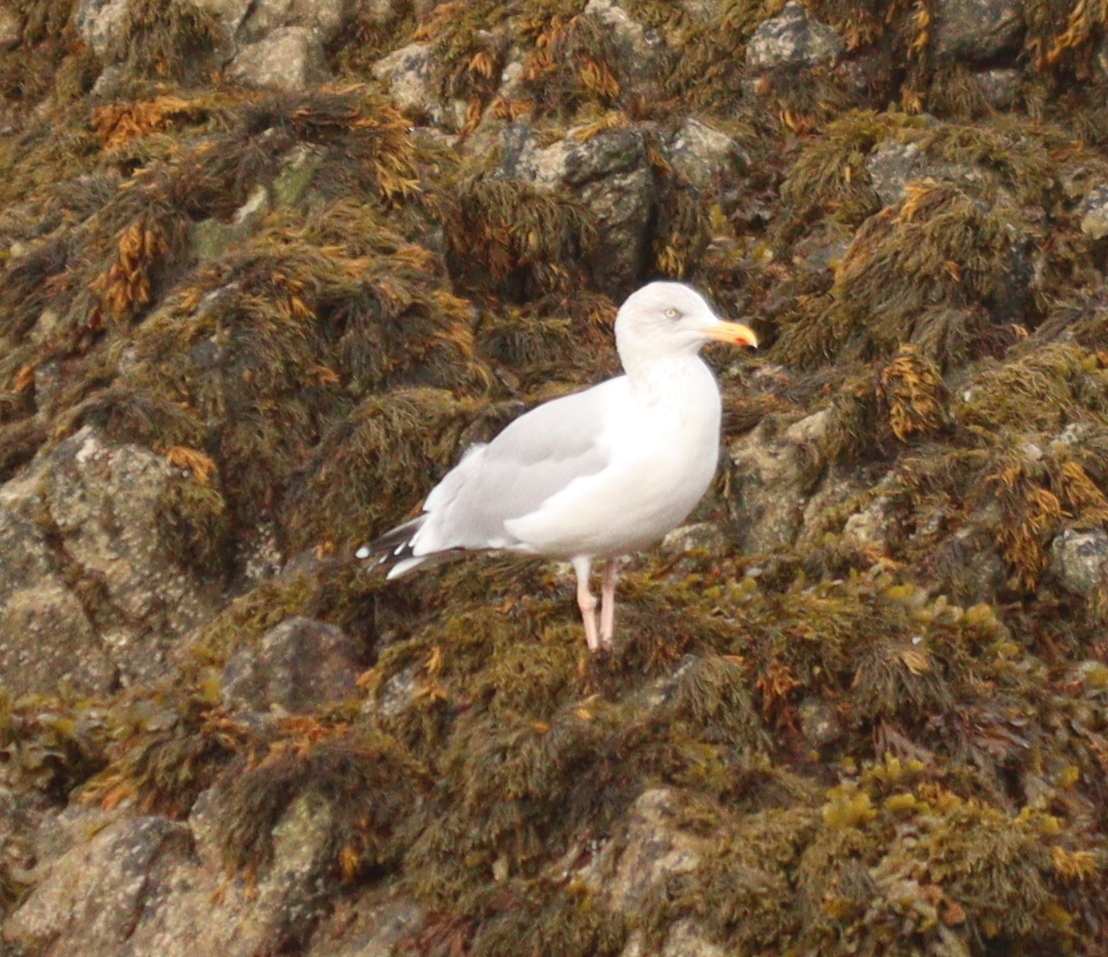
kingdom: Animalia
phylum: Chordata
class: Aves
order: Charadriiformes
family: Laridae
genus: Larus
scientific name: Larus argentatus
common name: Herring gull
